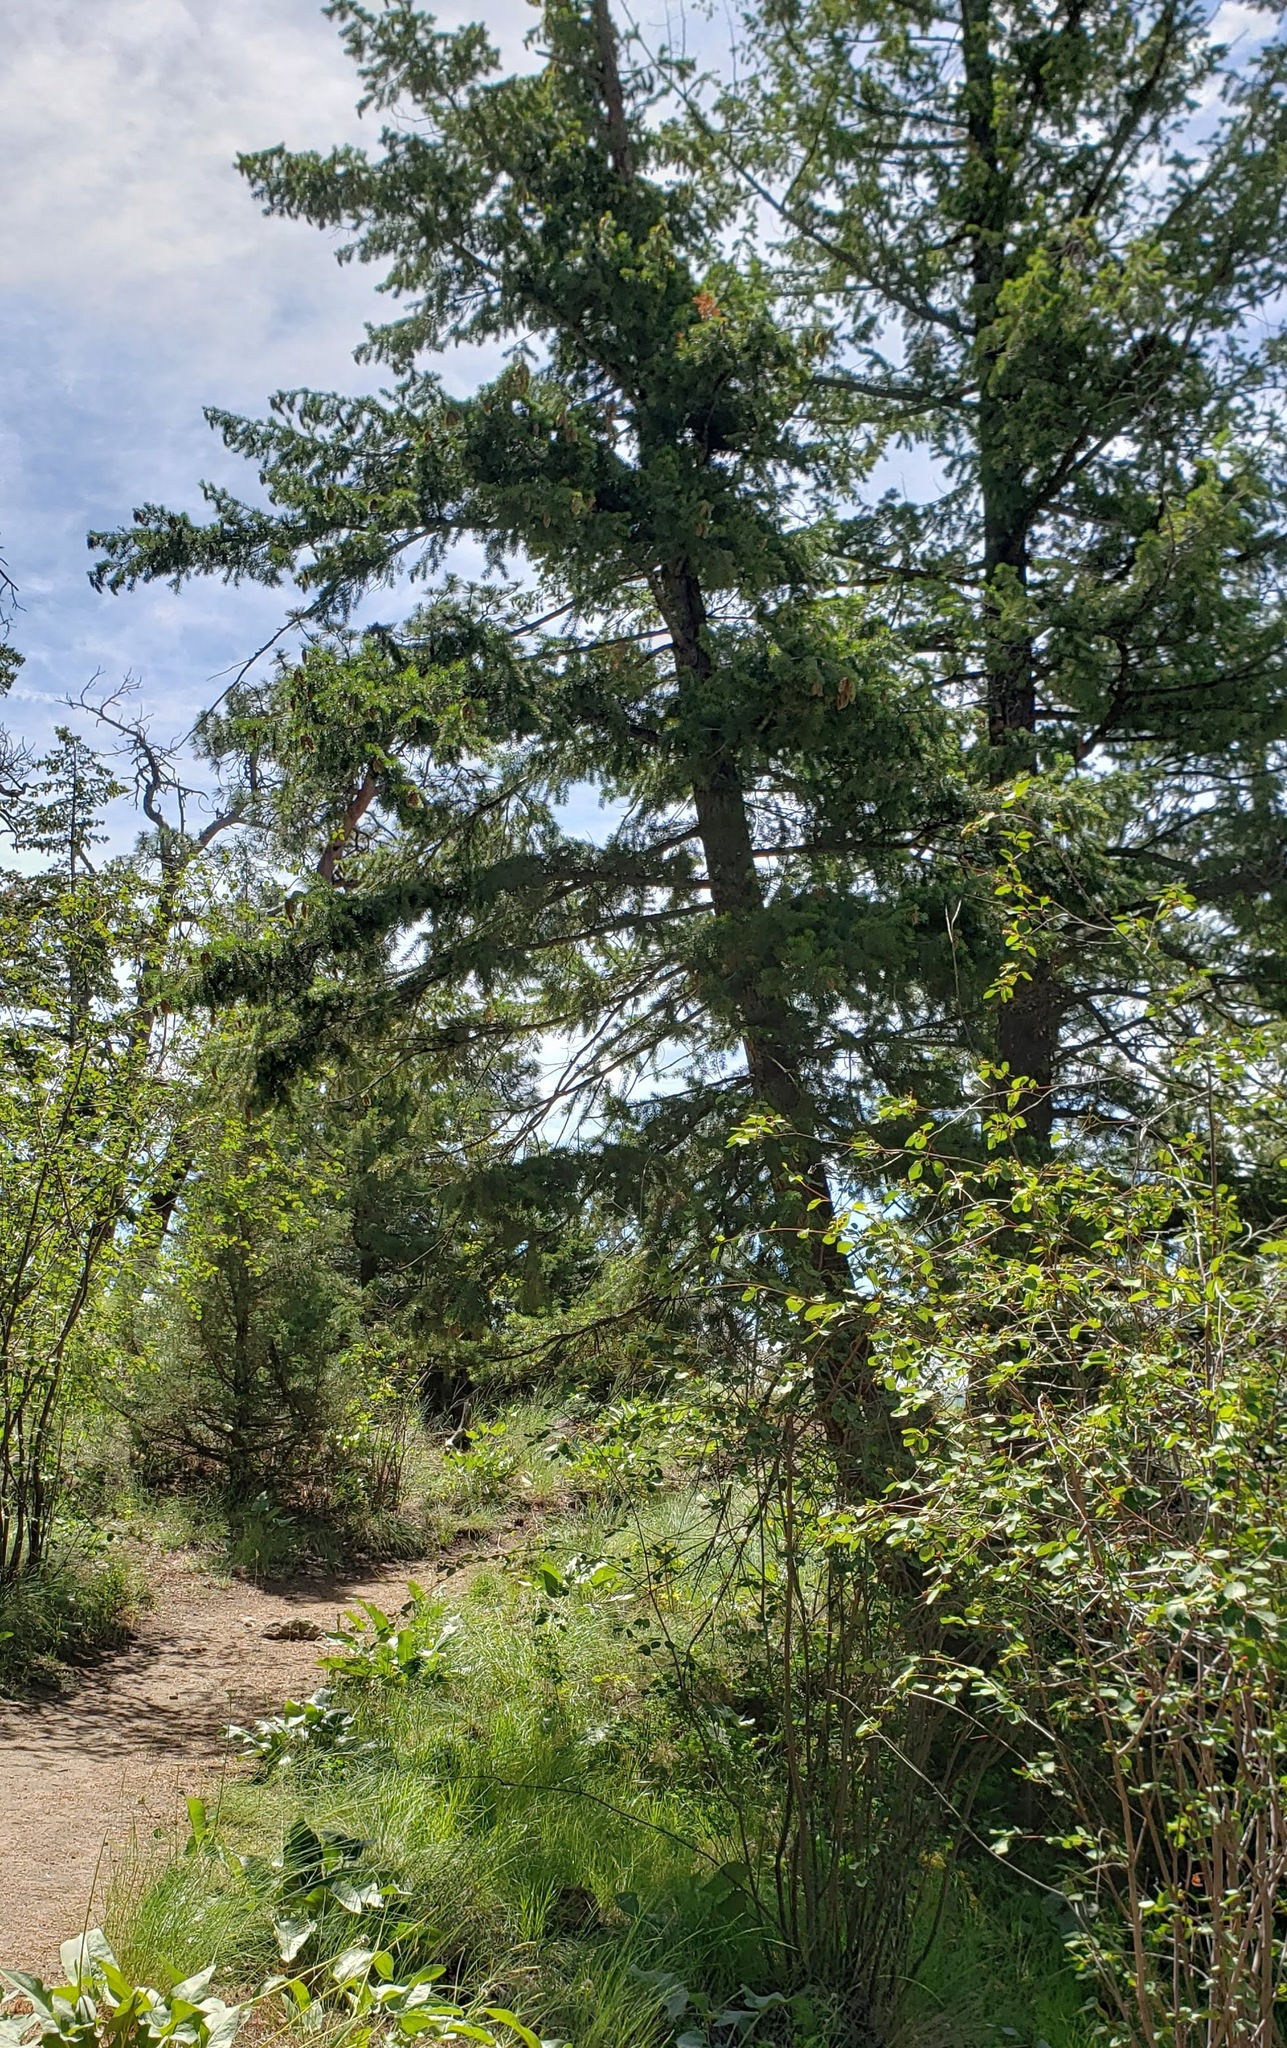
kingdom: Plantae
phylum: Tracheophyta
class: Pinopsida
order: Pinales
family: Pinaceae
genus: Pseudotsuga
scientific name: Pseudotsuga menziesii
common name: Douglas fir
